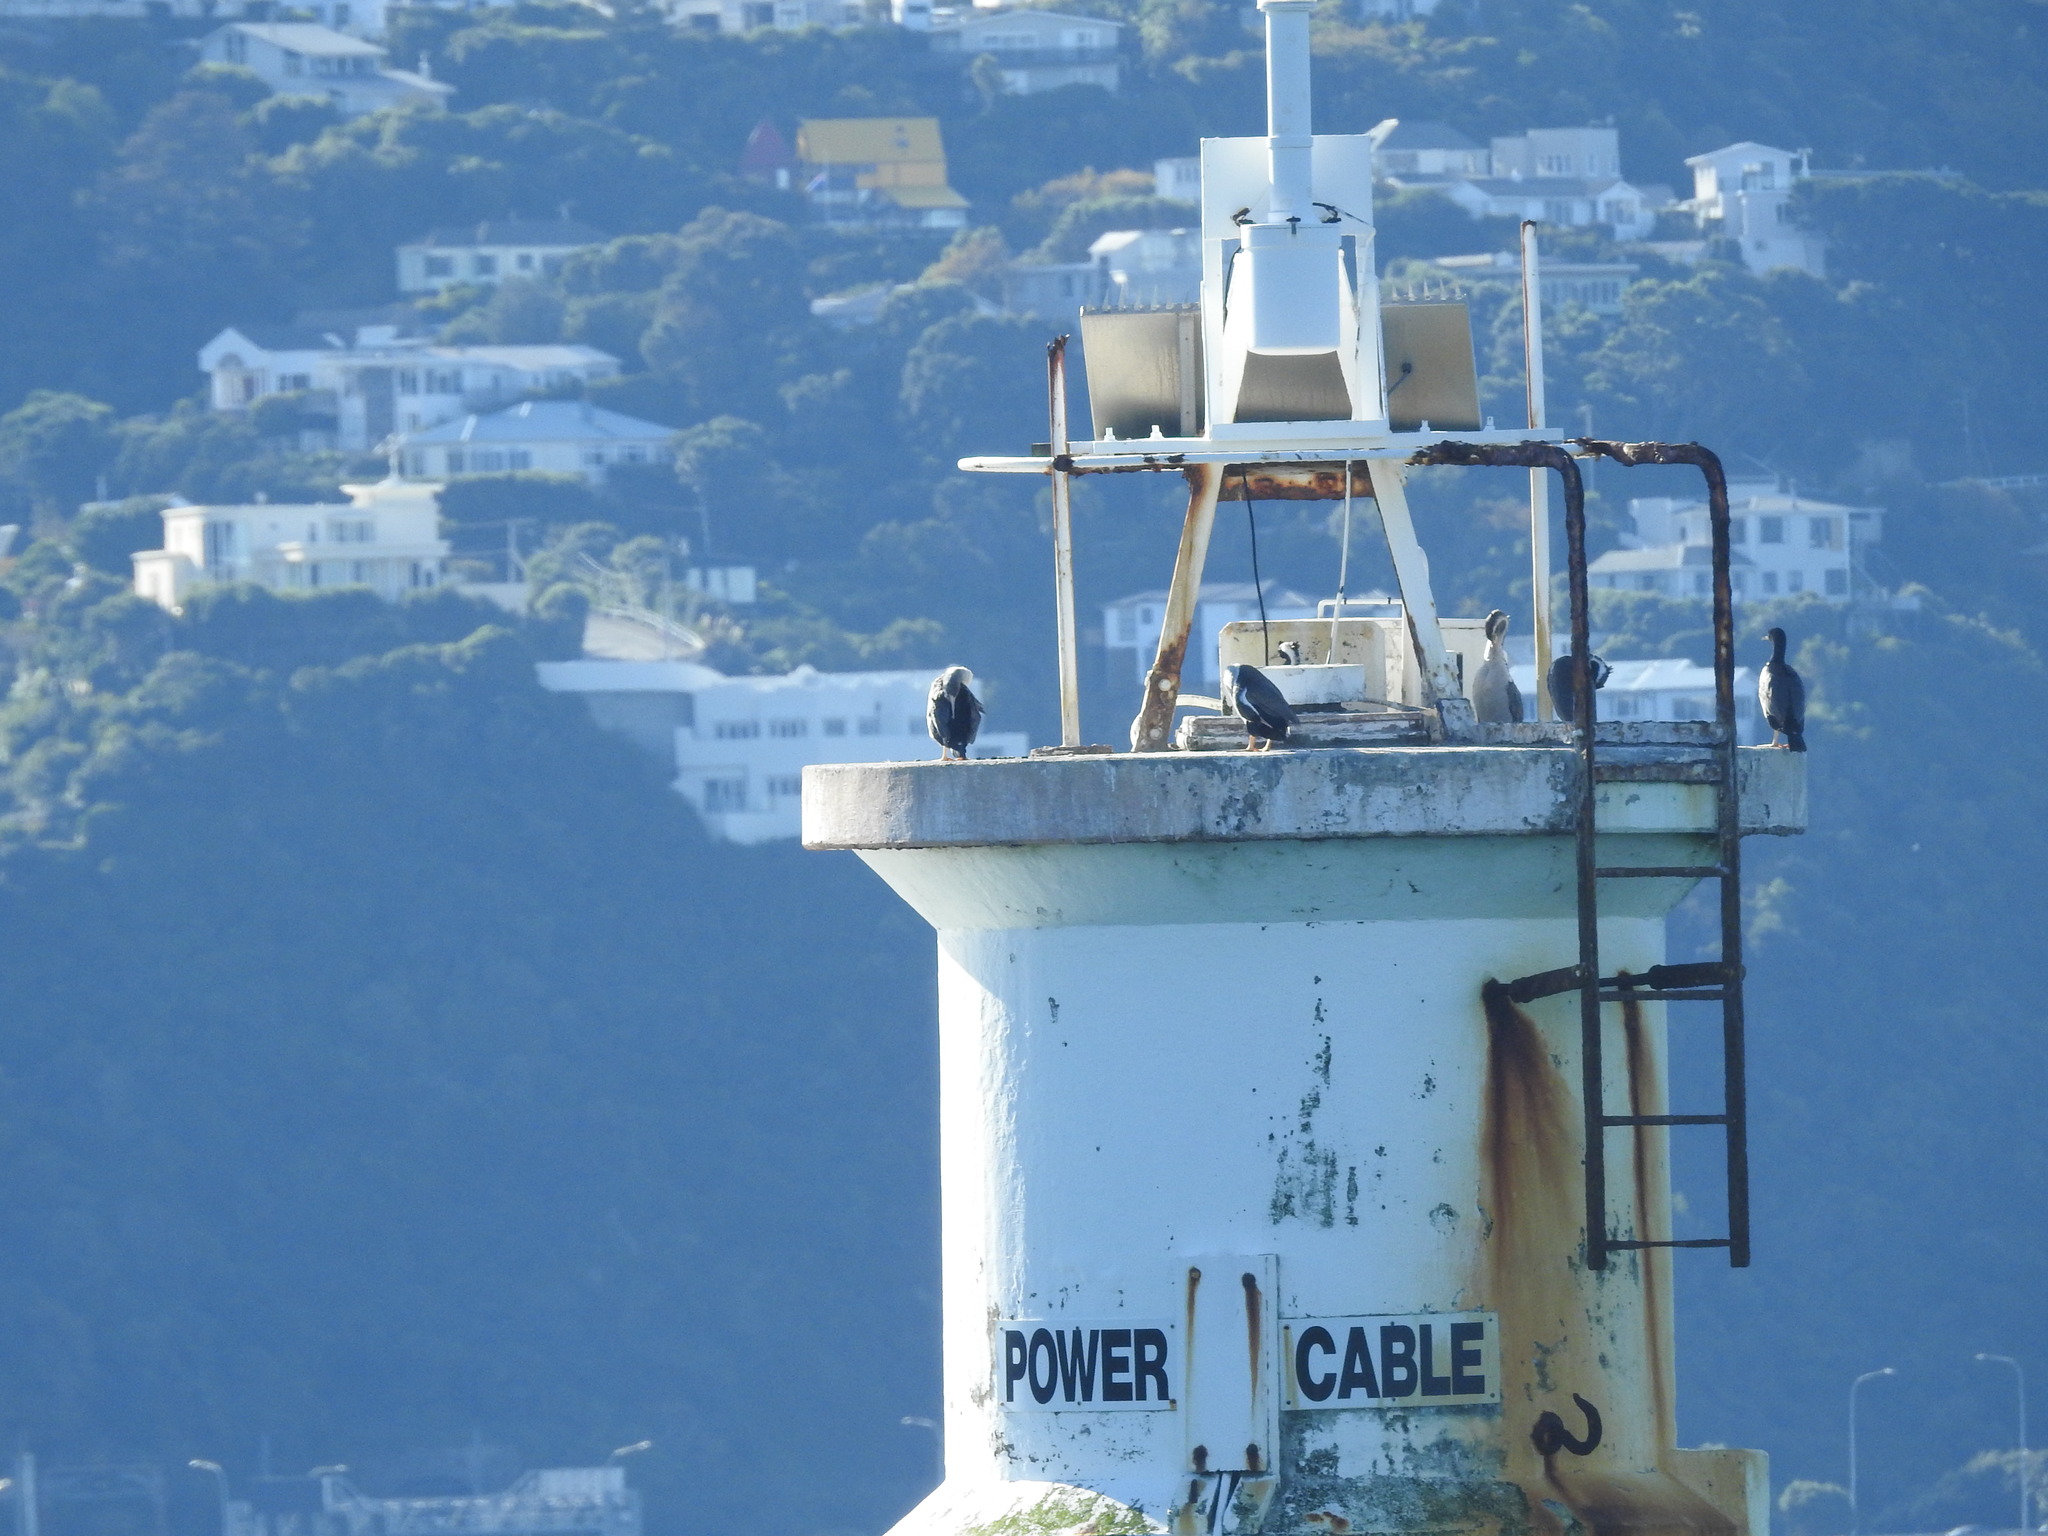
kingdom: Animalia
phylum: Chordata
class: Aves
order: Suliformes
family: Phalacrocoracidae
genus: Phalacrocorax
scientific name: Phalacrocorax punctatus
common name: Spotted shag
